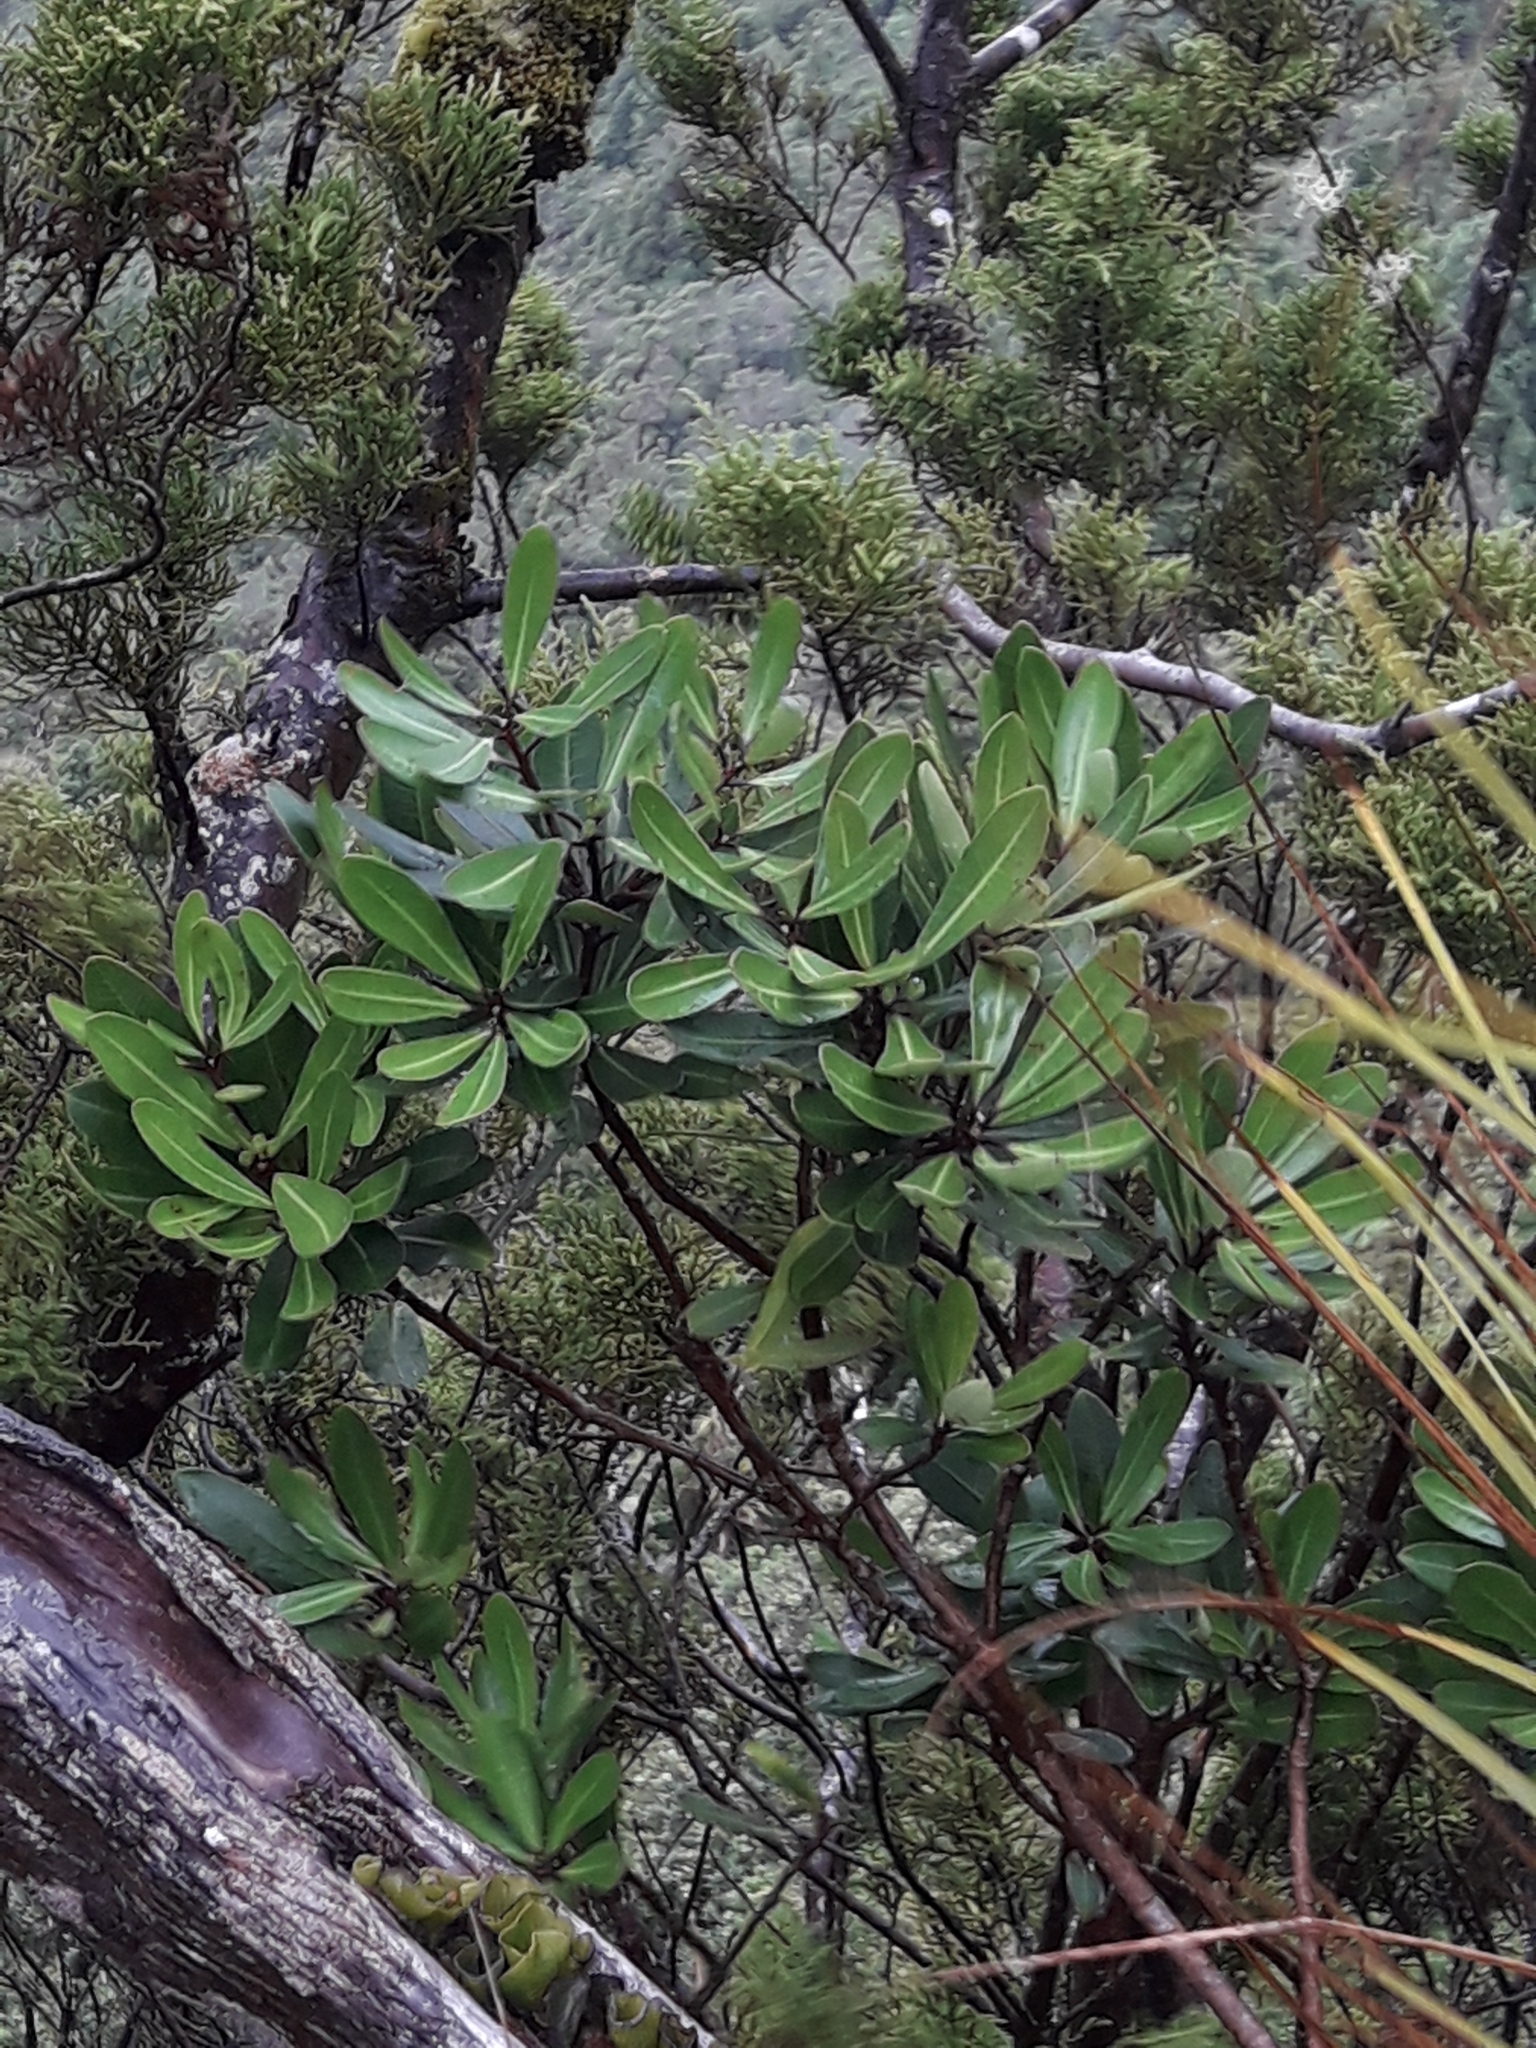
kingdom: Plantae
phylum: Tracheophyta
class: Magnoliopsida
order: Apiales
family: Pittosporaceae
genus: Pittosporum
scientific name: Pittosporum kirkii
